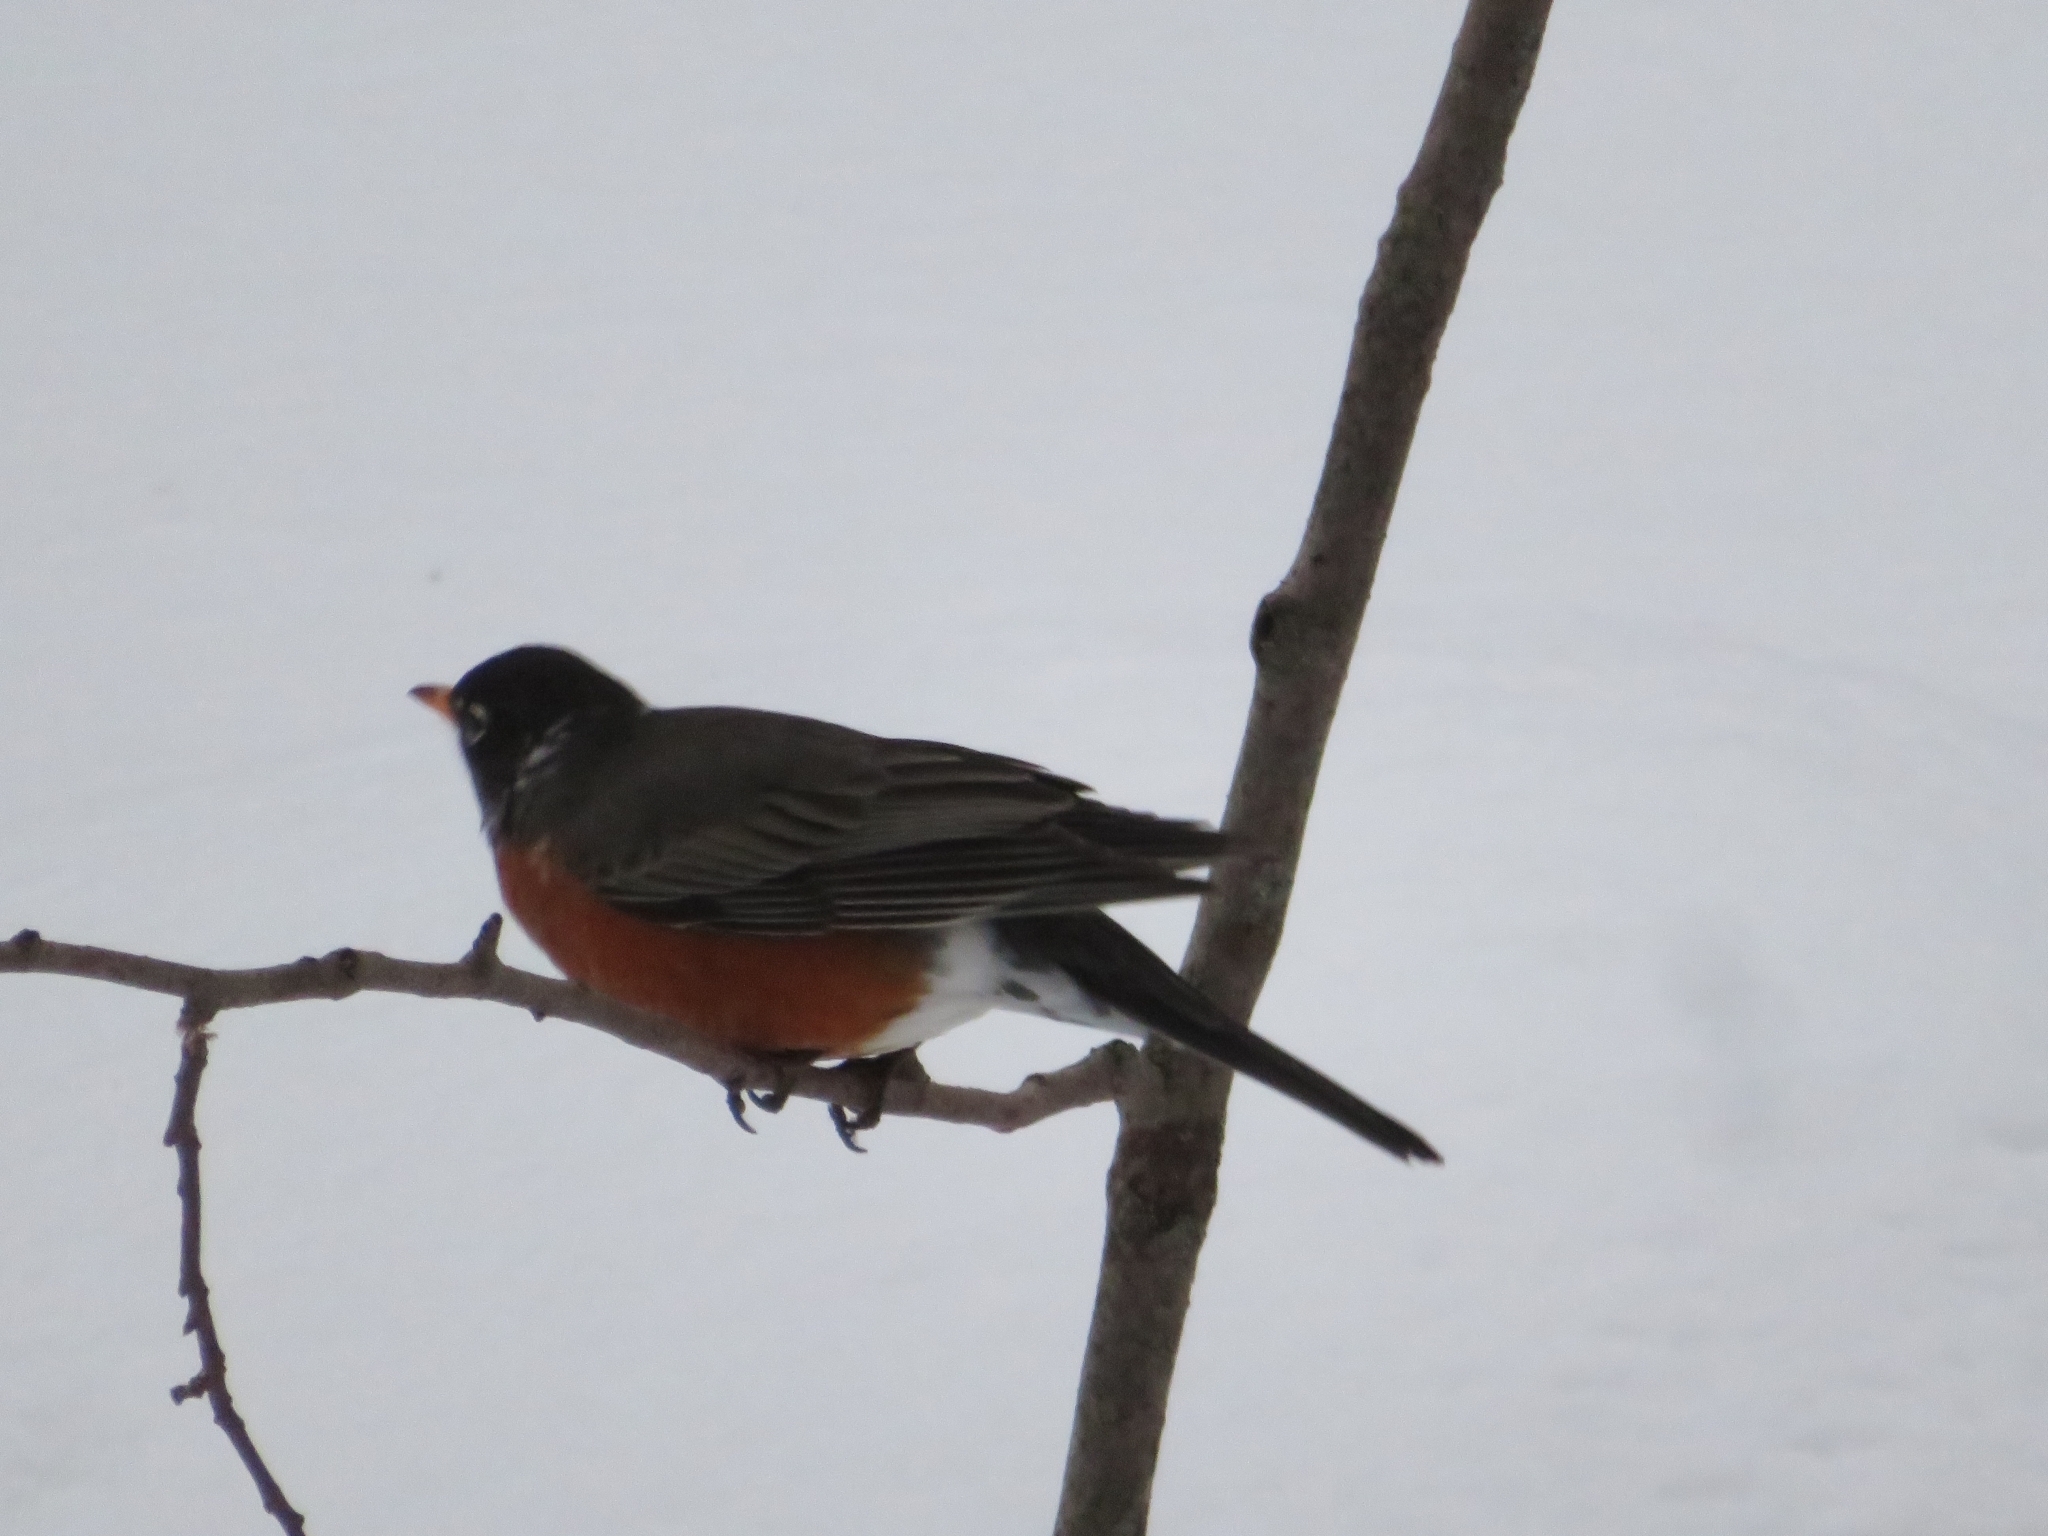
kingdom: Animalia
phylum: Chordata
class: Aves
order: Passeriformes
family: Turdidae
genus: Turdus
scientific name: Turdus migratorius
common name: American robin
